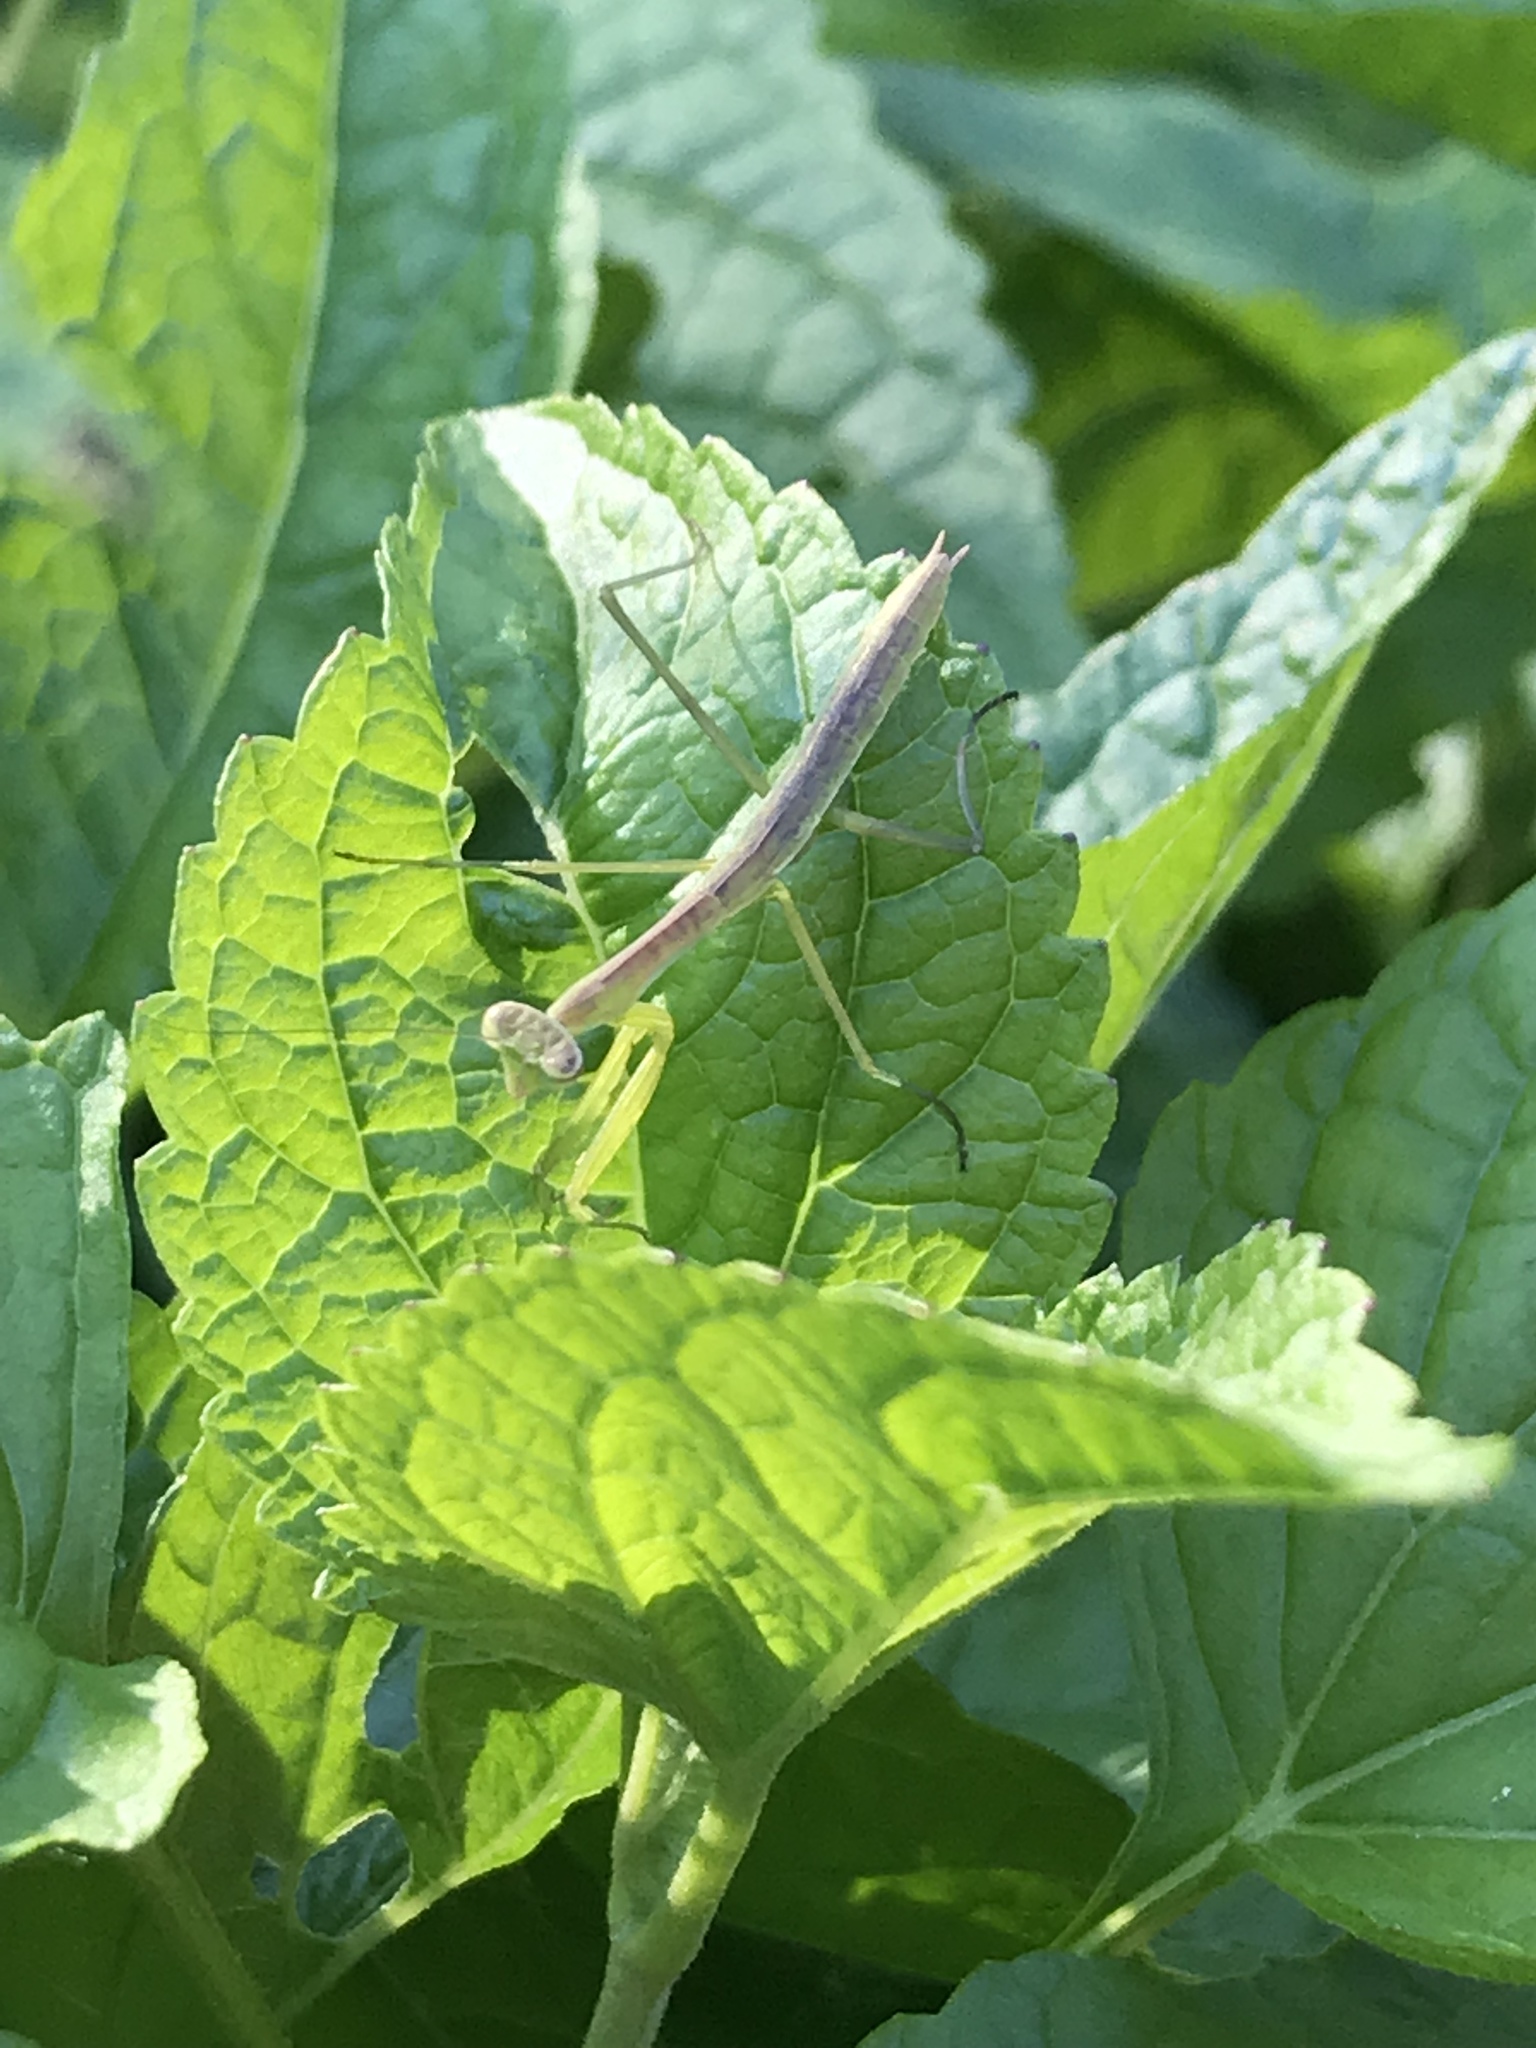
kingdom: Animalia
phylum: Arthropoda
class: Insecta
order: Mantodea
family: Mantidae
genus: Tenodera
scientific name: Tenodera sinensis
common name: Chinese mantis
